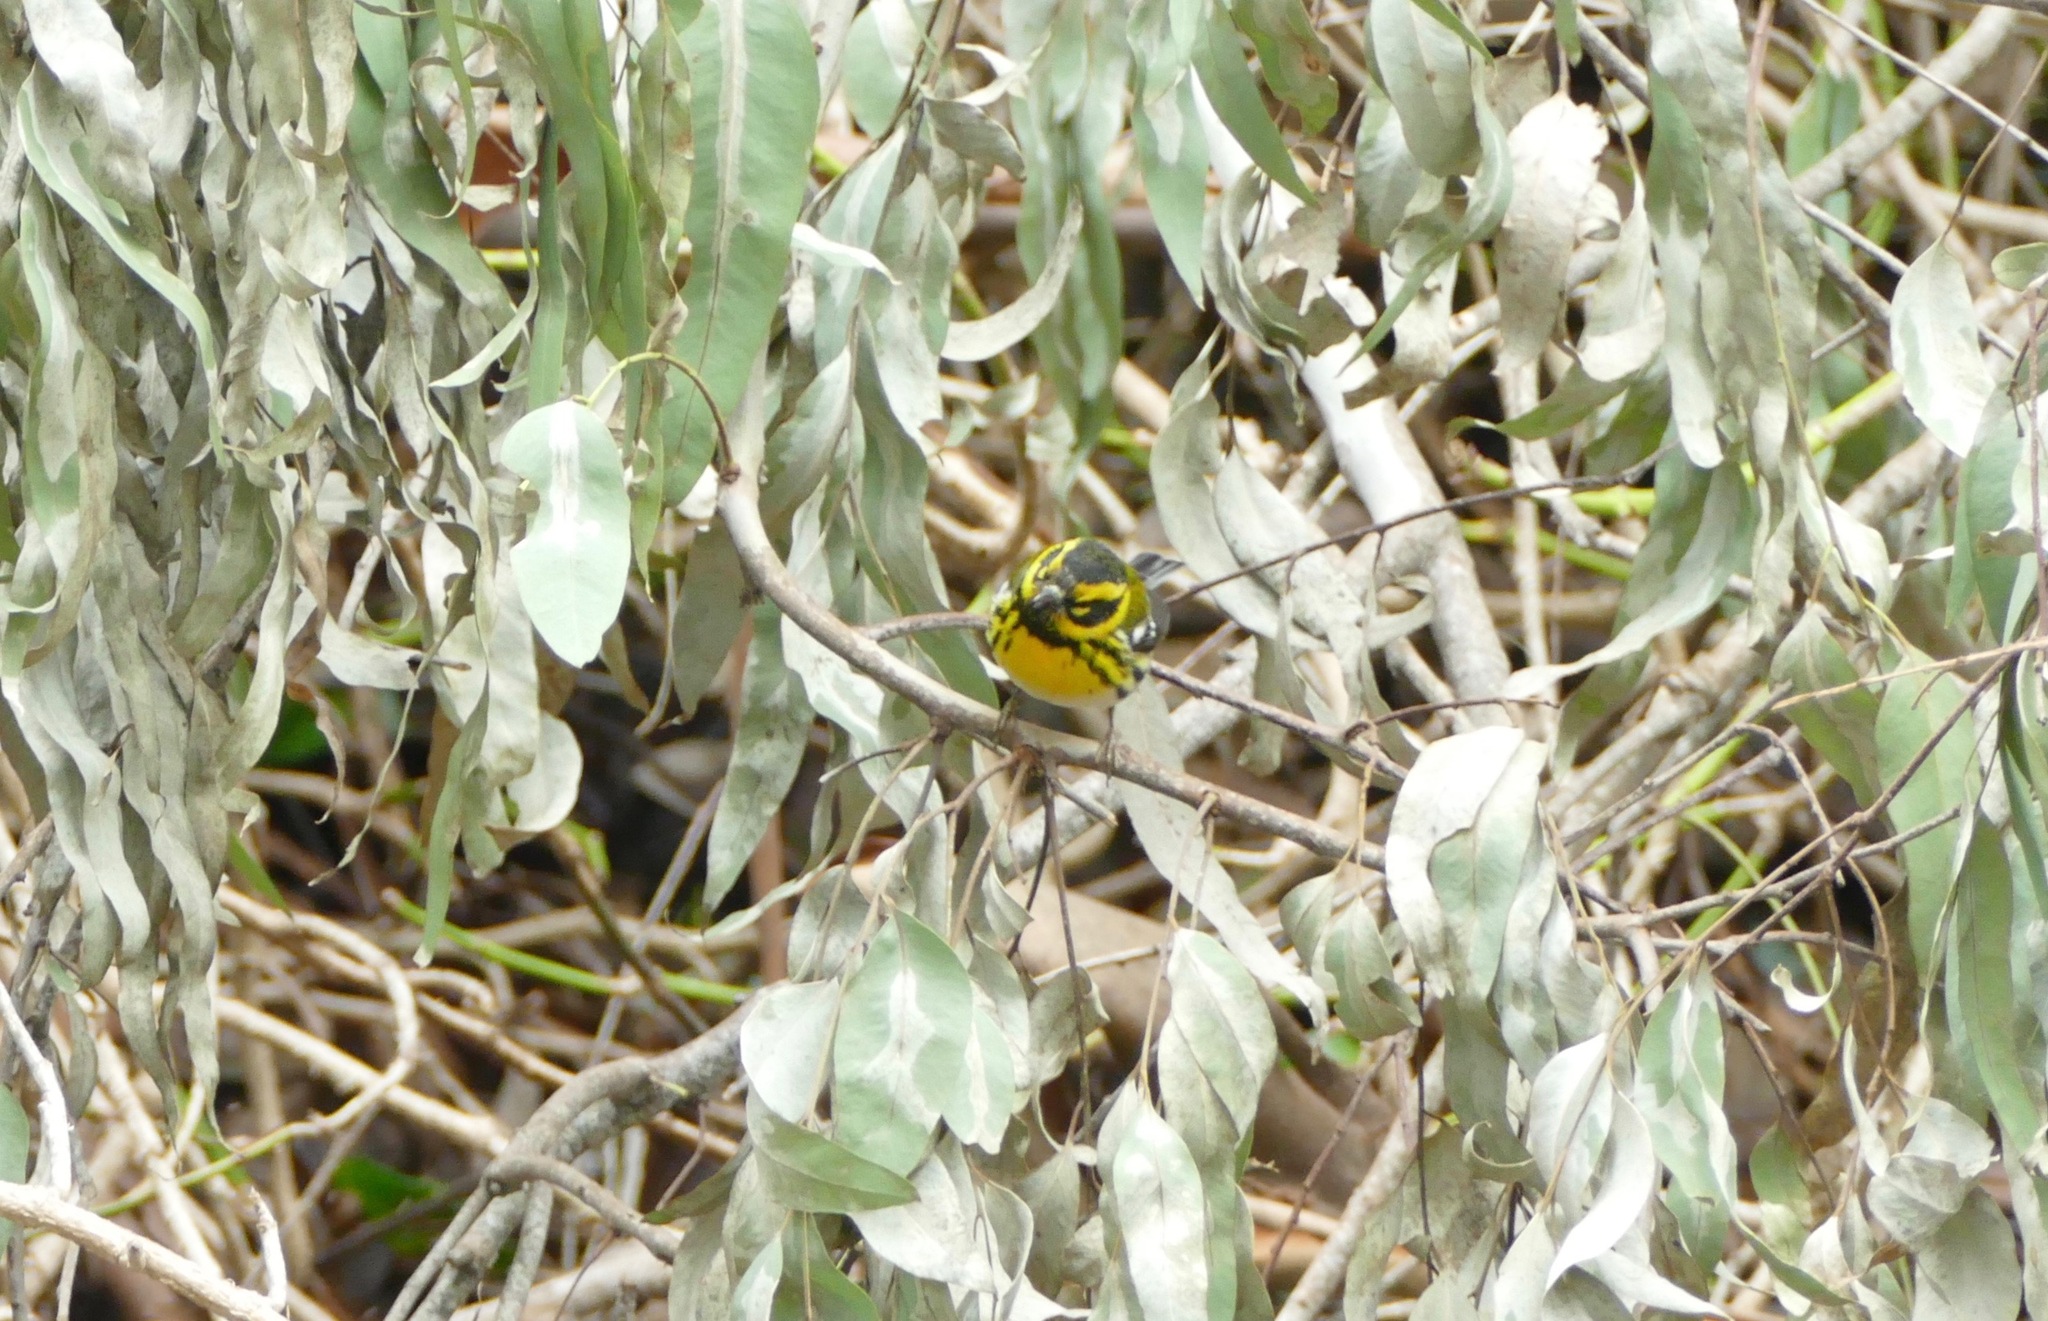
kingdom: Animalia
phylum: Chordata
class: Aves
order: Passeriformes
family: Parulidae
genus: Setophaga
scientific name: Setophaga townsendi
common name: Townsend's warbler
